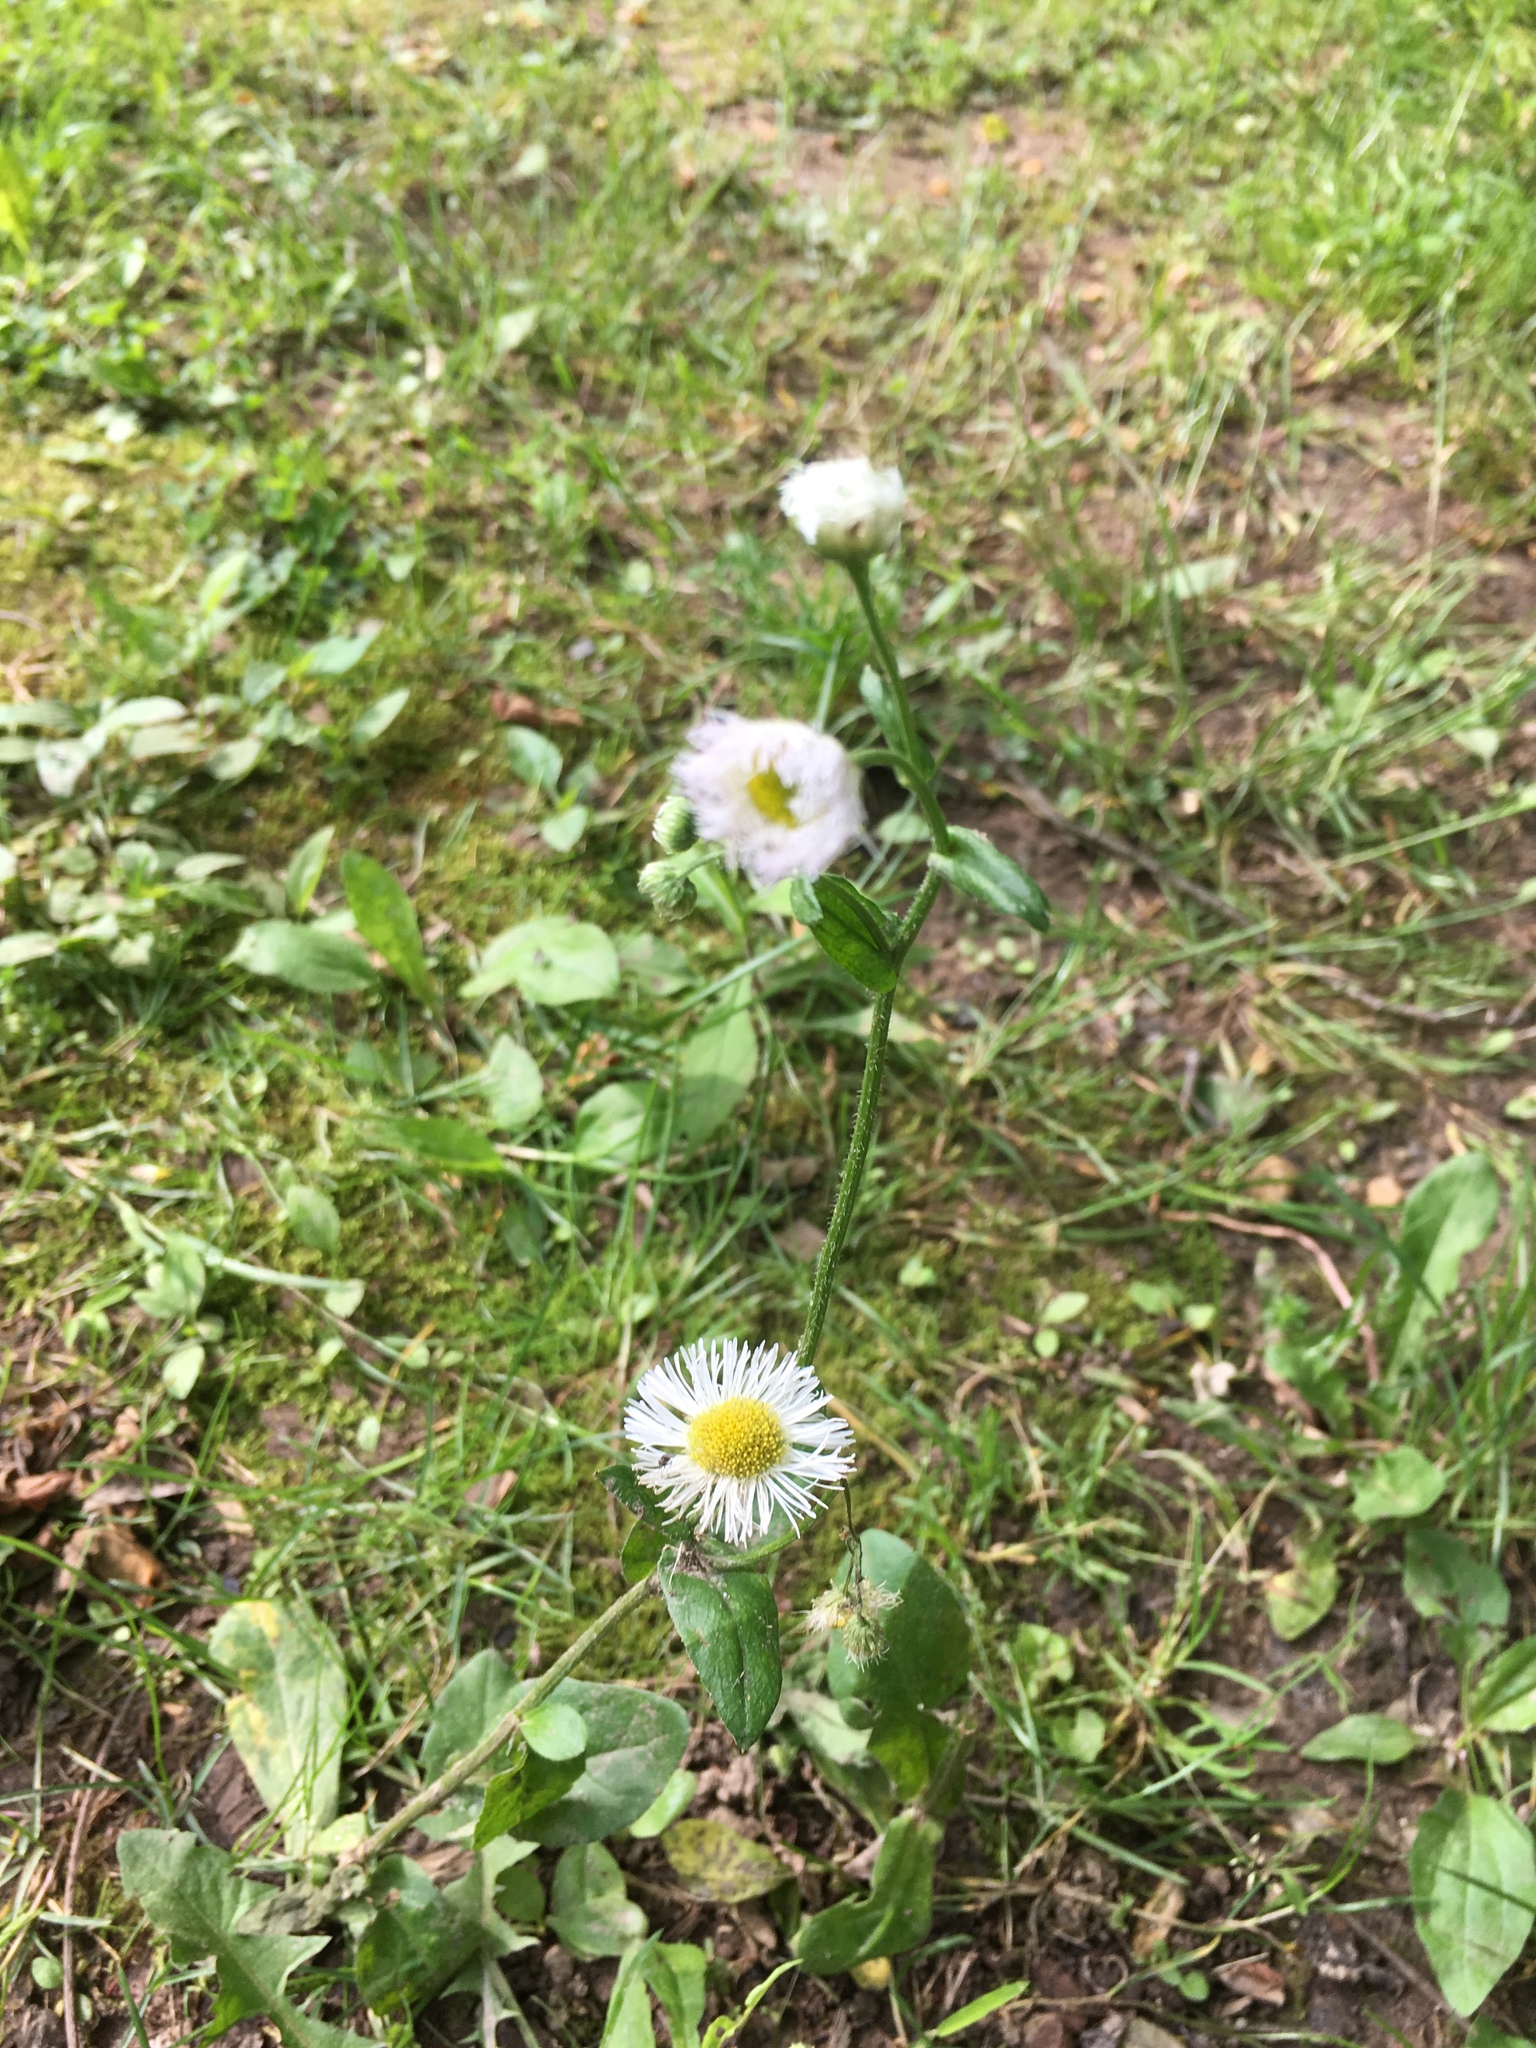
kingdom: Plantae
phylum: Tracheophyta
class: Magnoliopsida
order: Asterales
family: Asteraceae
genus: Erigeron
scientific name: Erigeron philadelphicus
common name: Robin's-plantain
